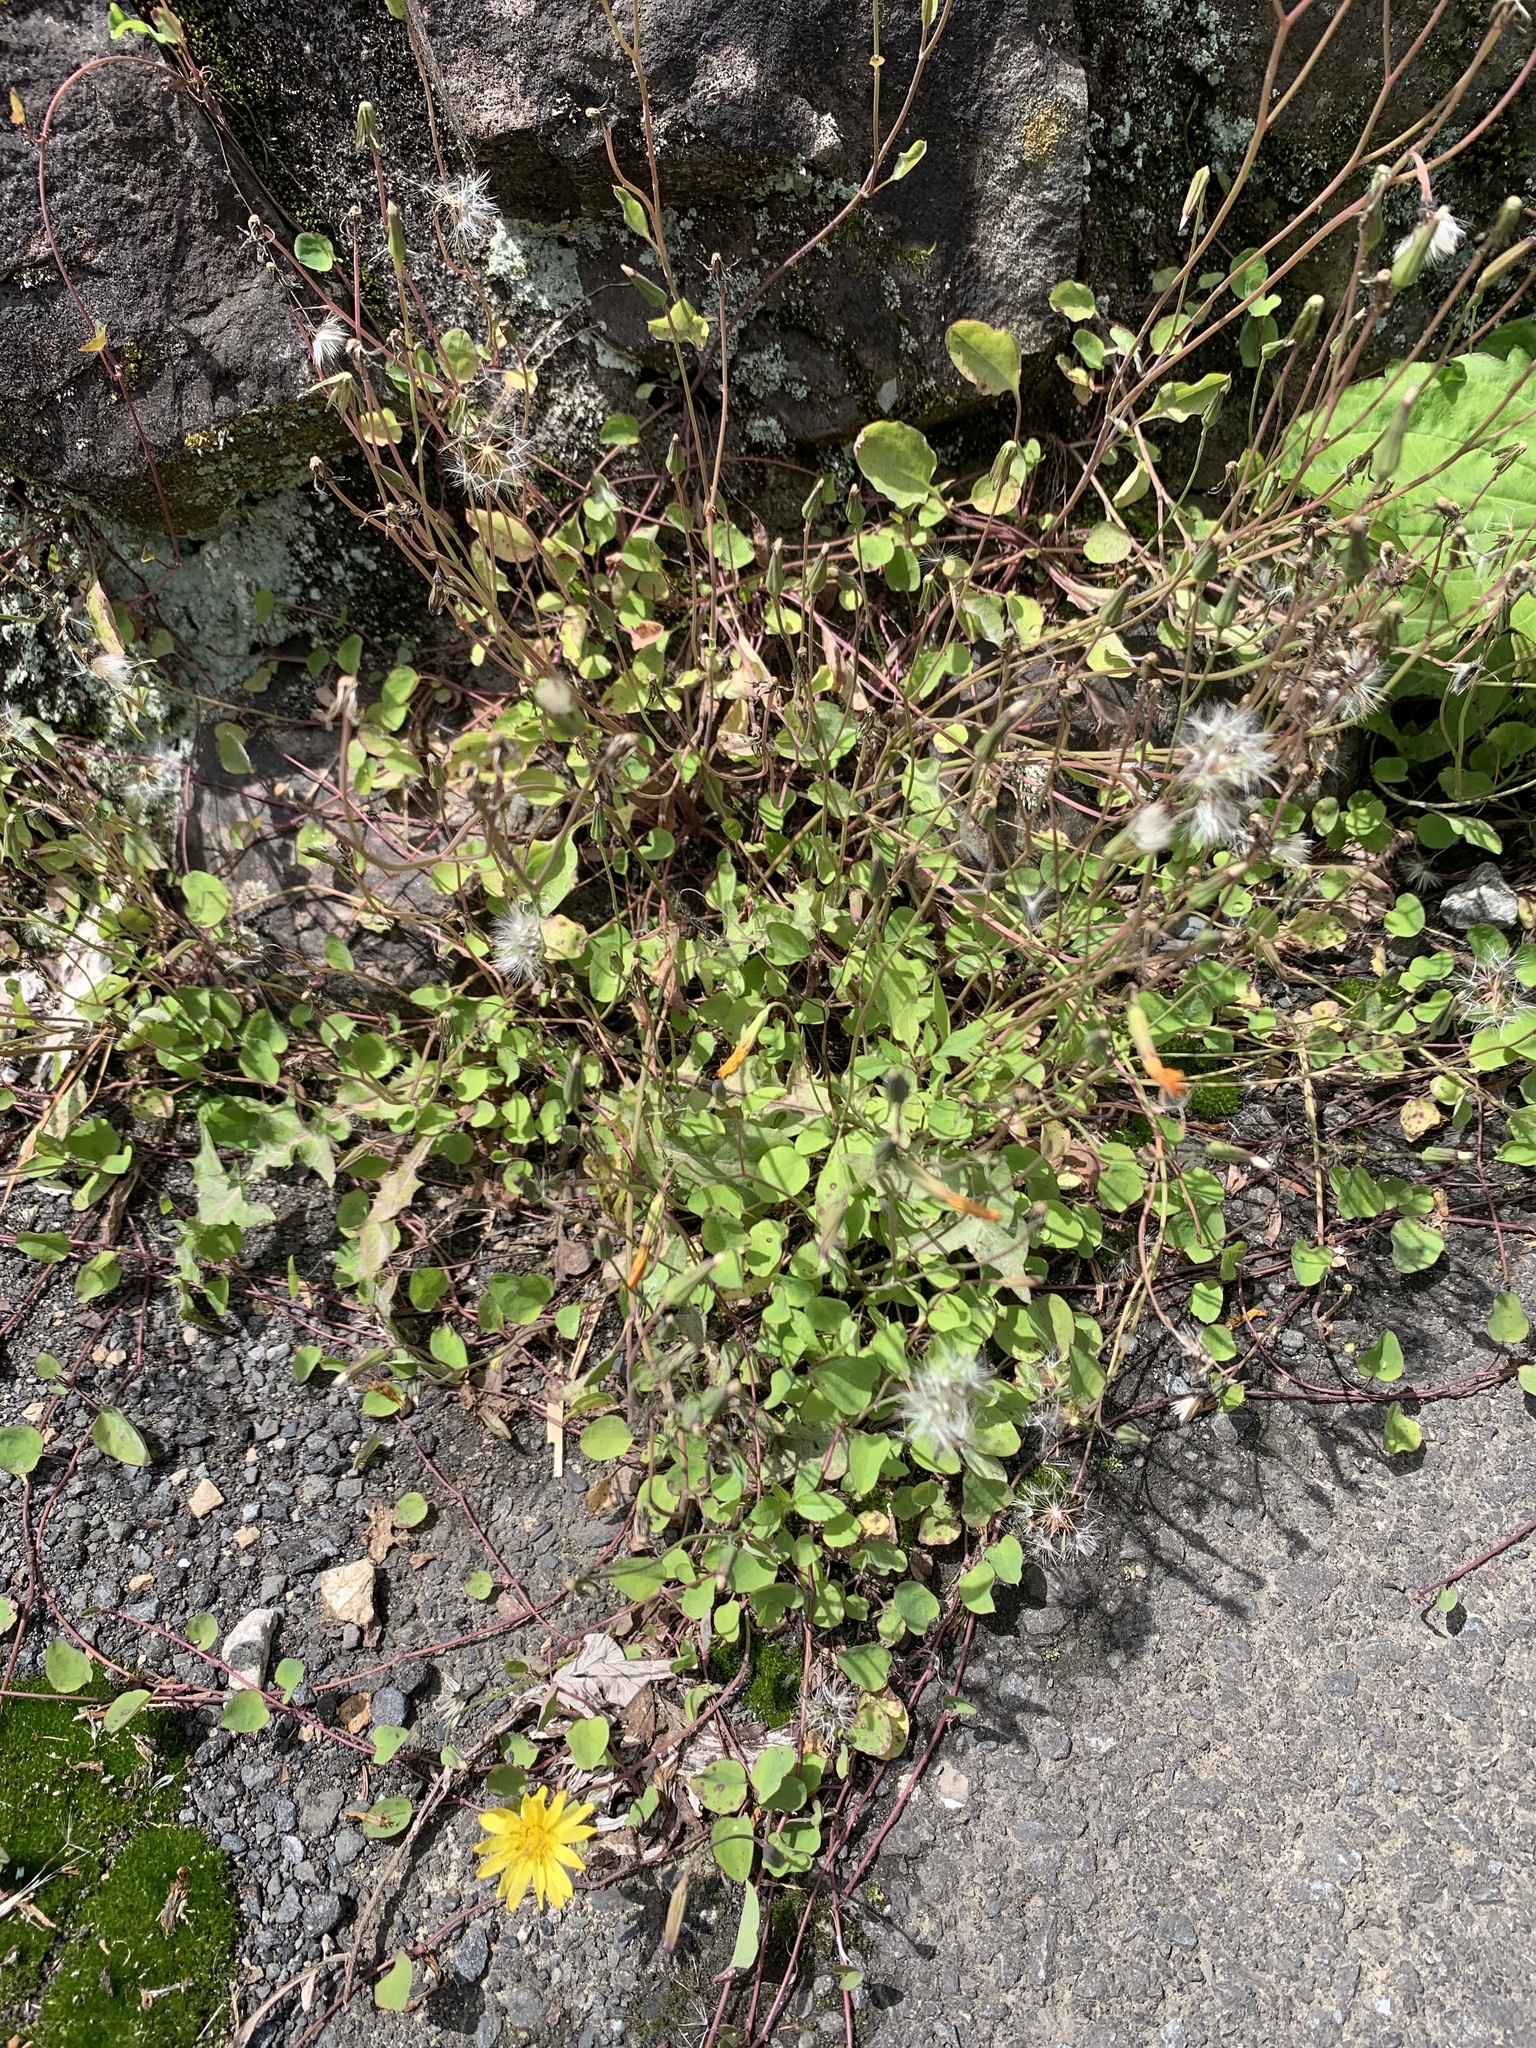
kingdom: Plantae
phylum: Tracheophyta
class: Magnoliopsida
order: Asterales
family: Asteraceae
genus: Ixeris
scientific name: Ixeris stolonifera
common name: Creeping lettuce
